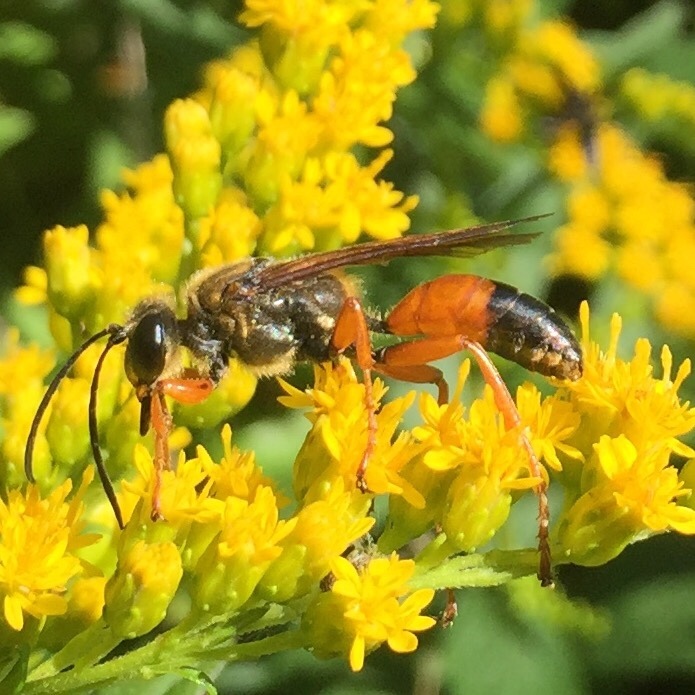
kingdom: Animalia
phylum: Arthropoda
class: Insecta
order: Hymenoptera
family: Sphecidae
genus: Sphex
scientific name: Sphex ichneumoneus
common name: Great golden digger wasp
